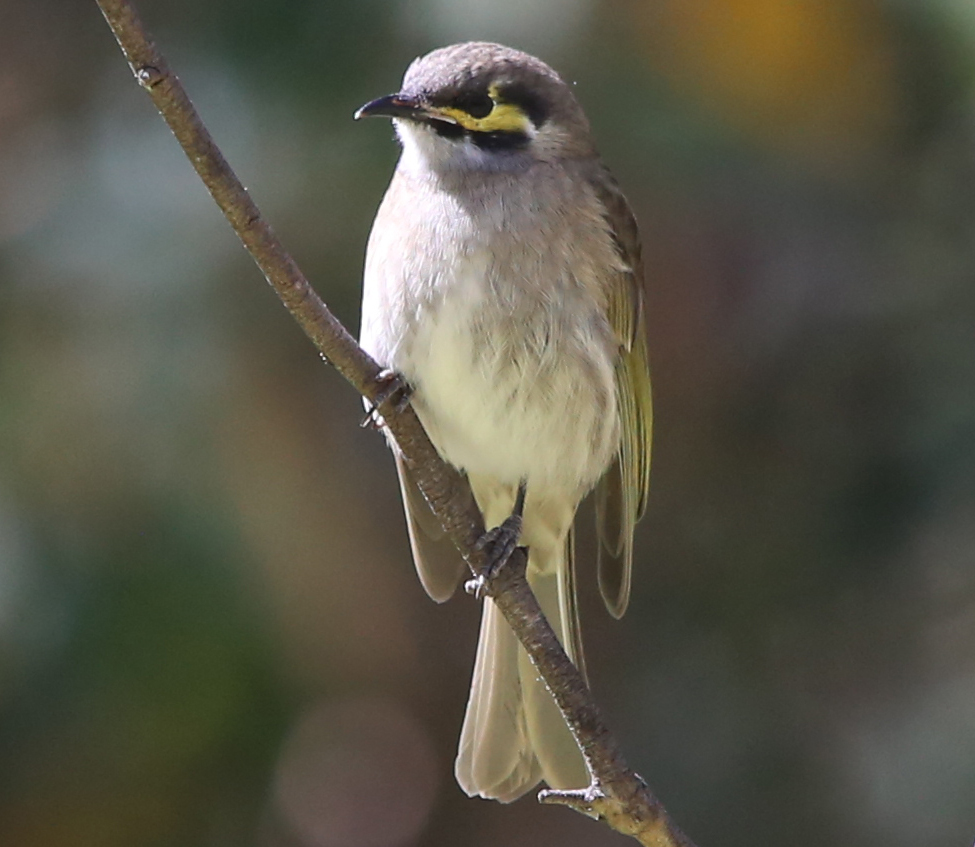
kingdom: Animalia
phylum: Chordata
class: Aves
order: Passeriformes
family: Meliphagidae
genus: Caligavis
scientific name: Caligavis chrysops
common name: Yellow-faced honeyeater
